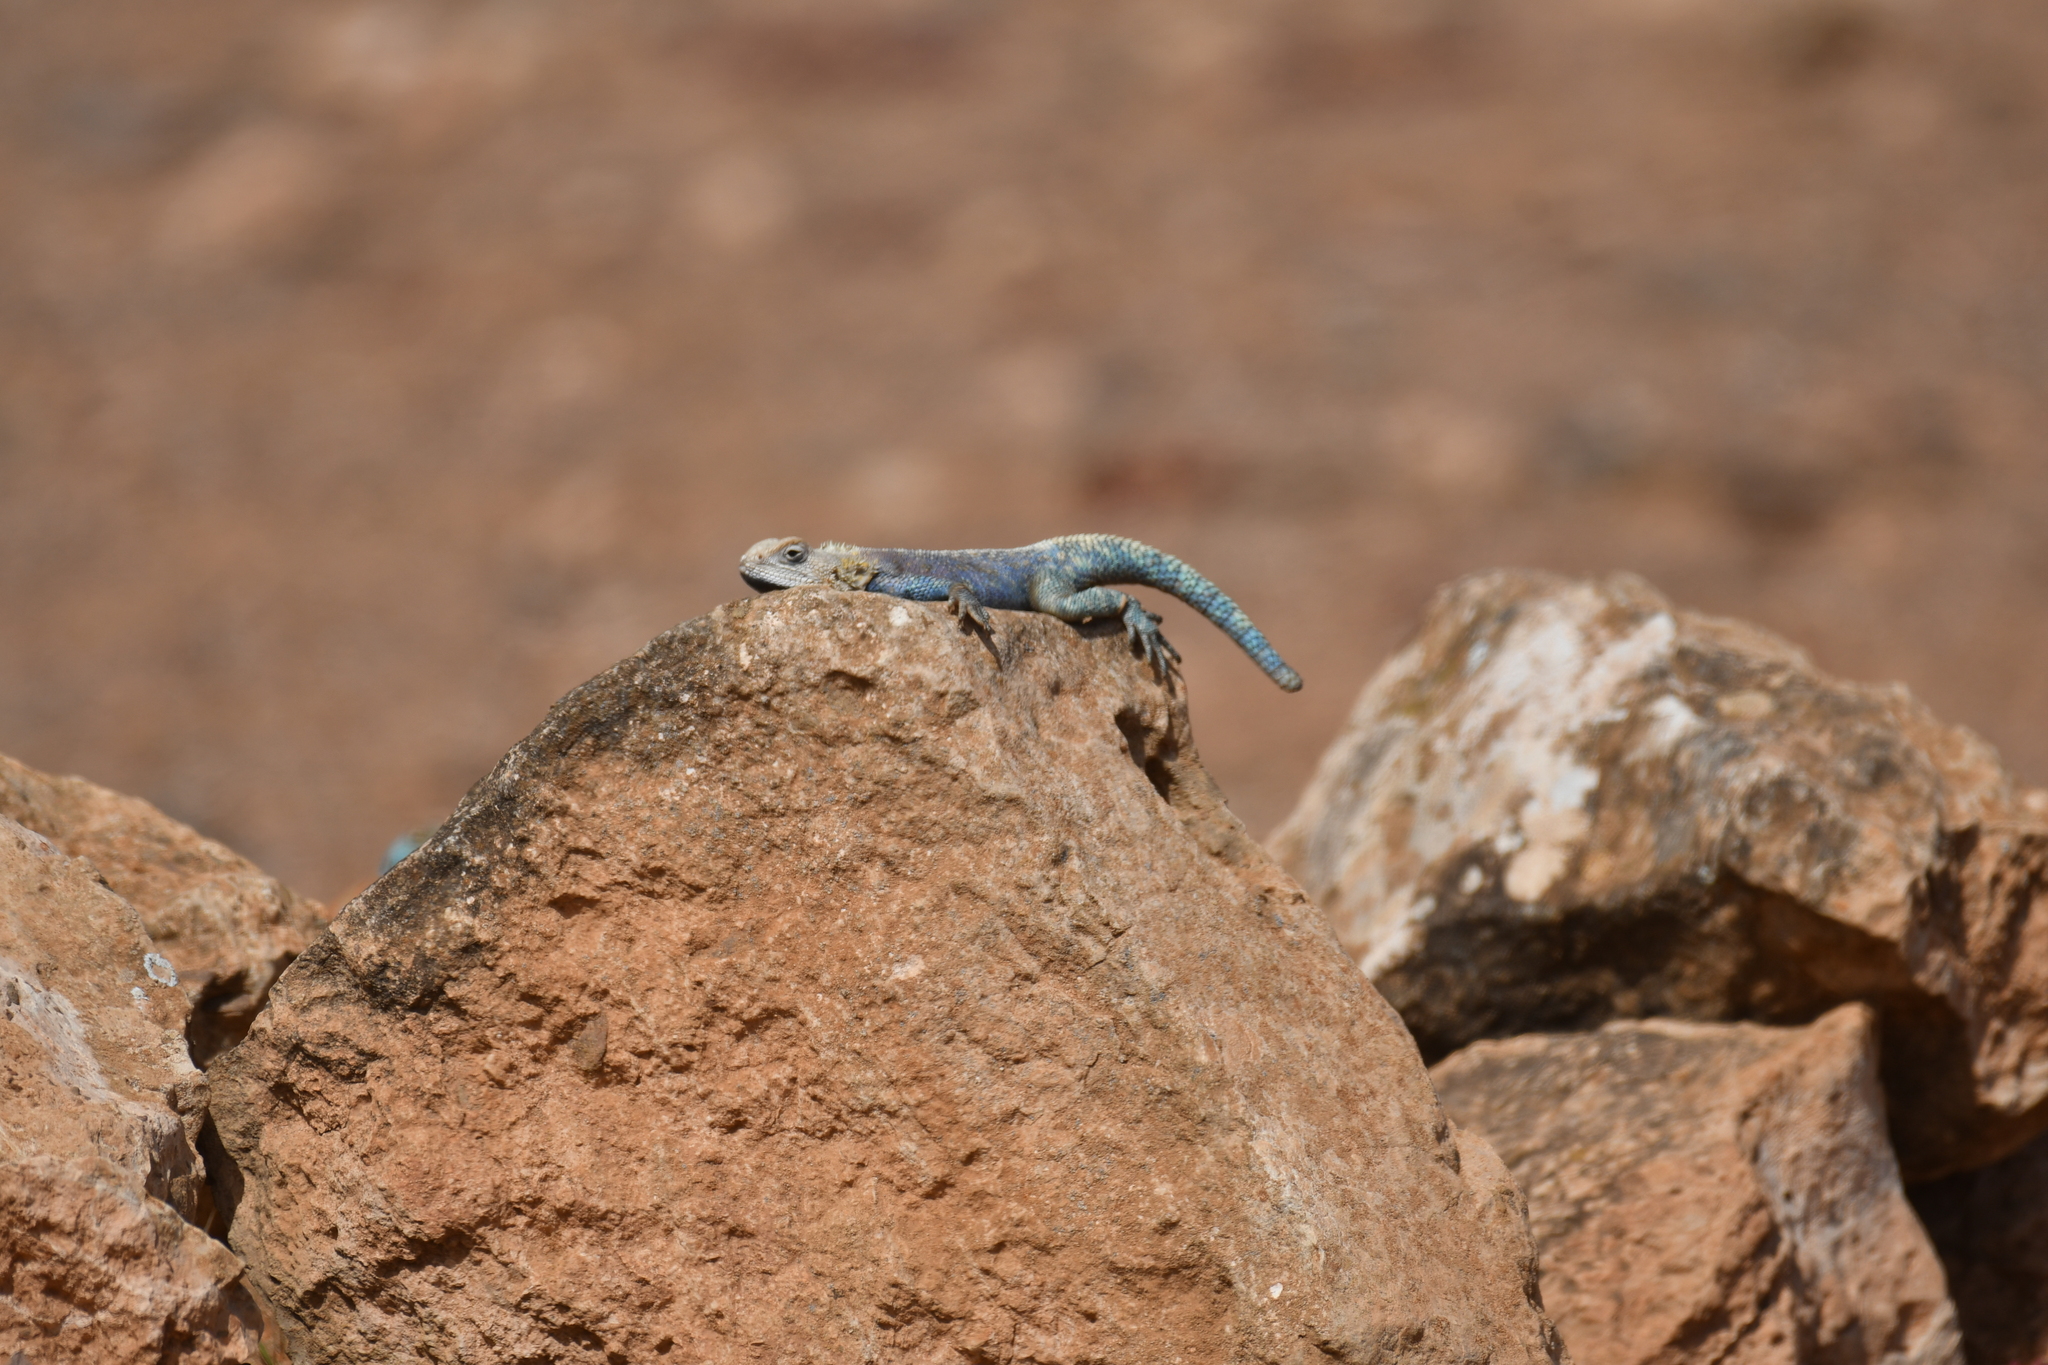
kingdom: Animalia
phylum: Chordata
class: Squamata
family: Agamidae
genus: Agama
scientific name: Agama impalearis
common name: Bibron's agama
